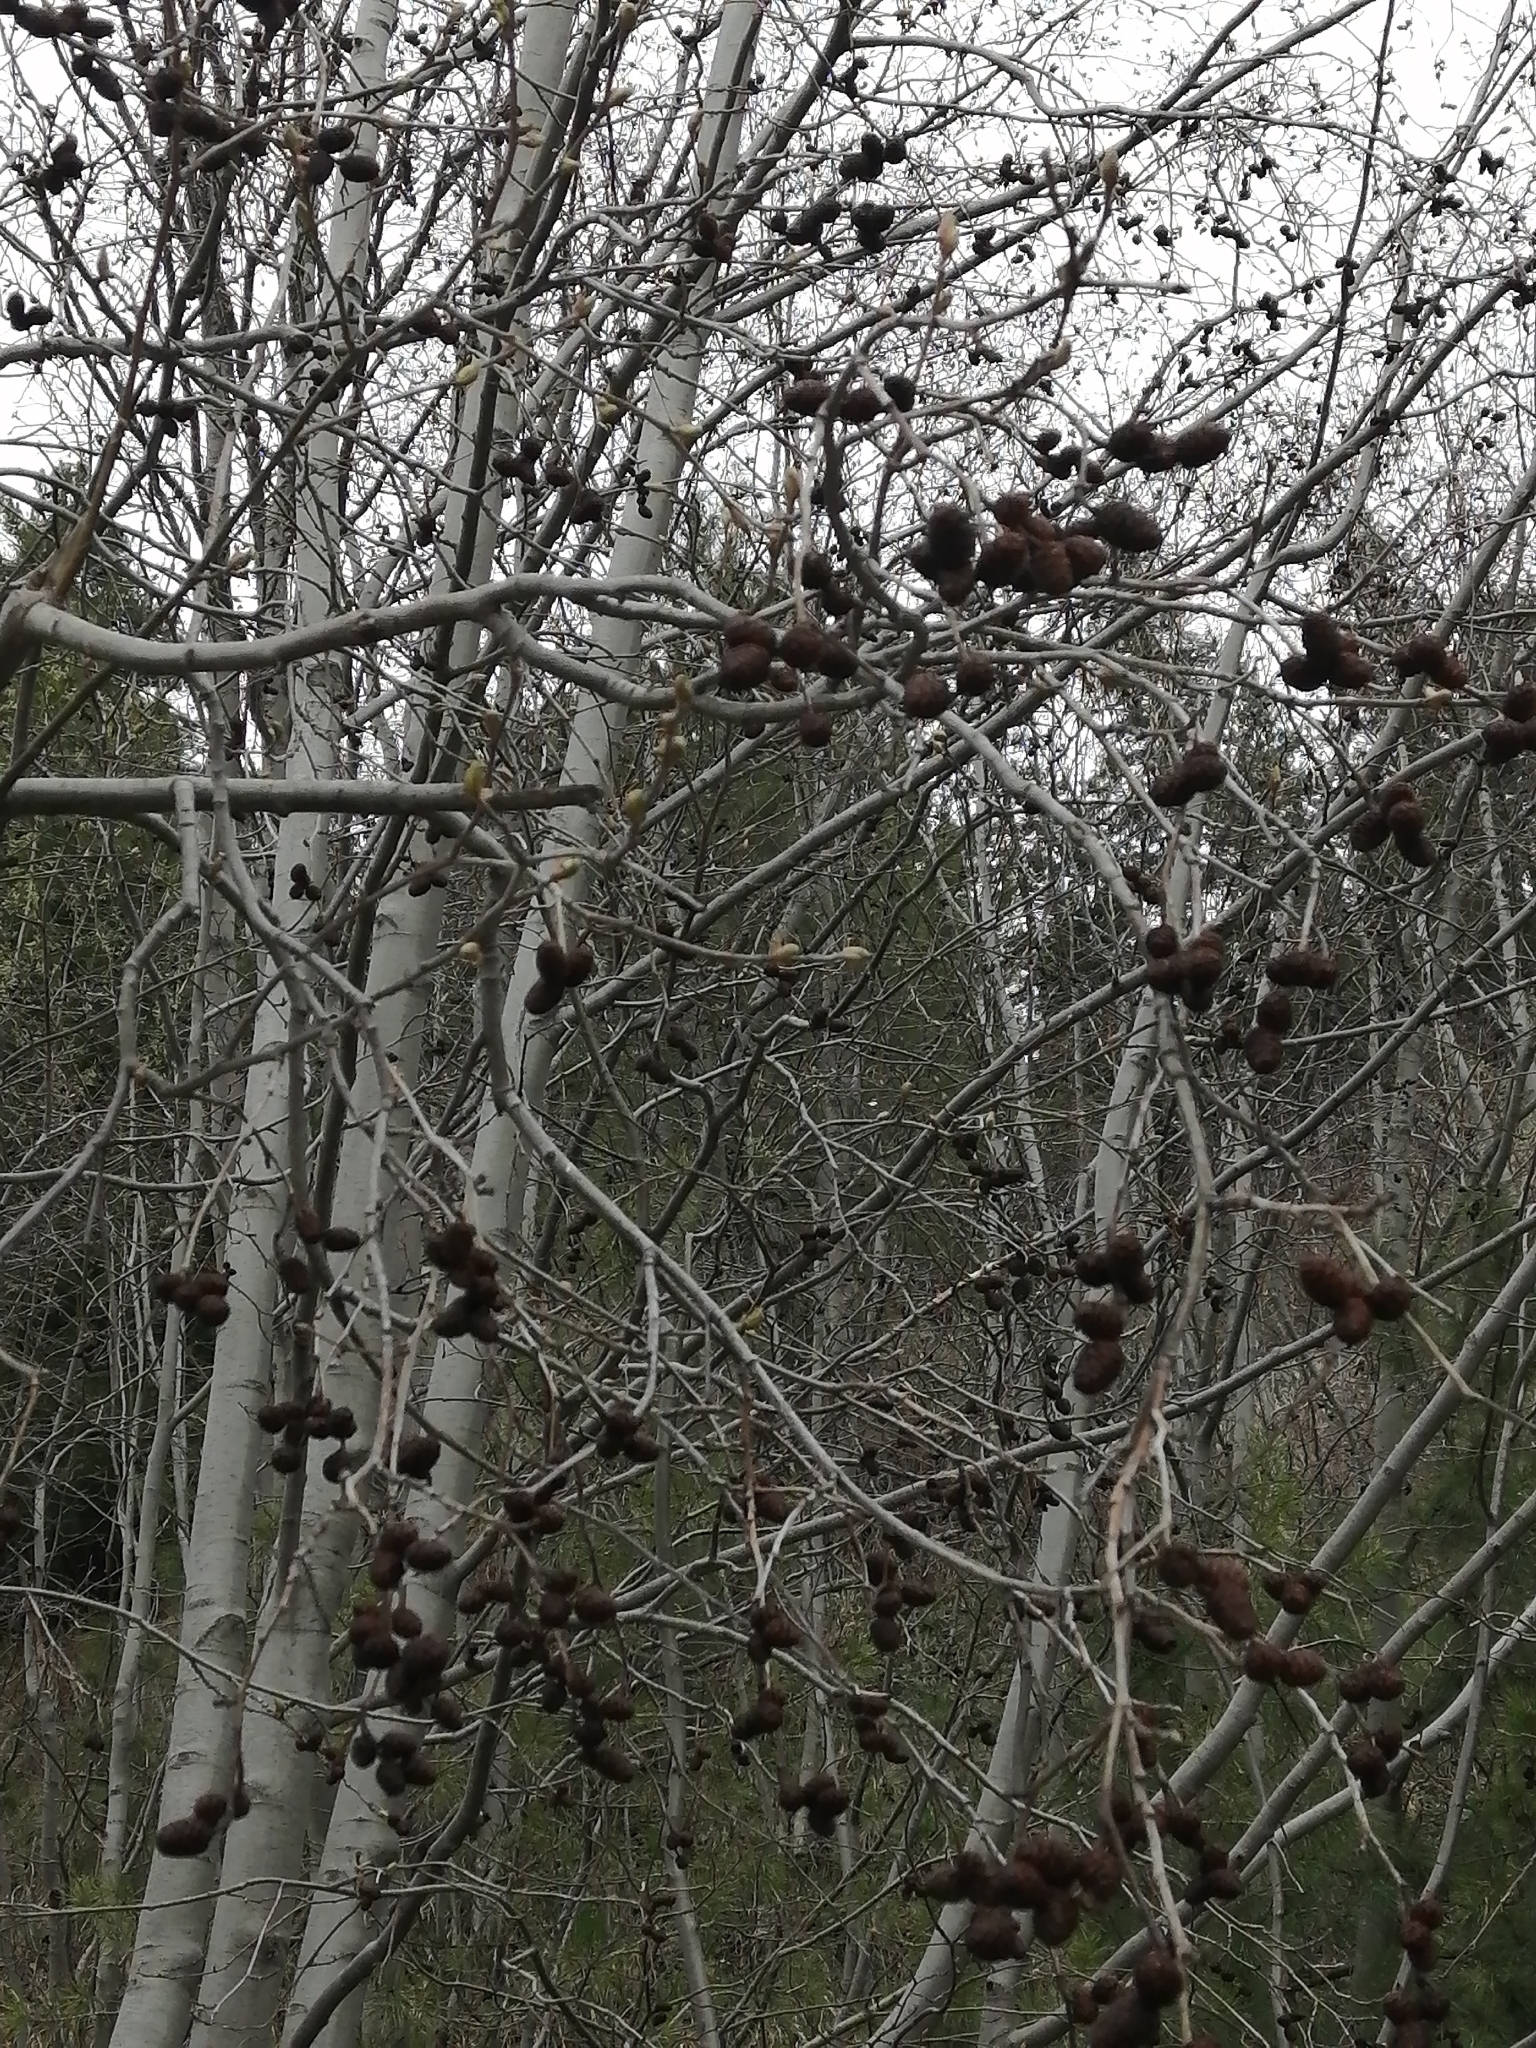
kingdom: Plantae
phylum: Tracheophyta
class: Magnoliopsida
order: Fagales
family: Betulaceae
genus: Alnus
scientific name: Alnus incana
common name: Grey alder
